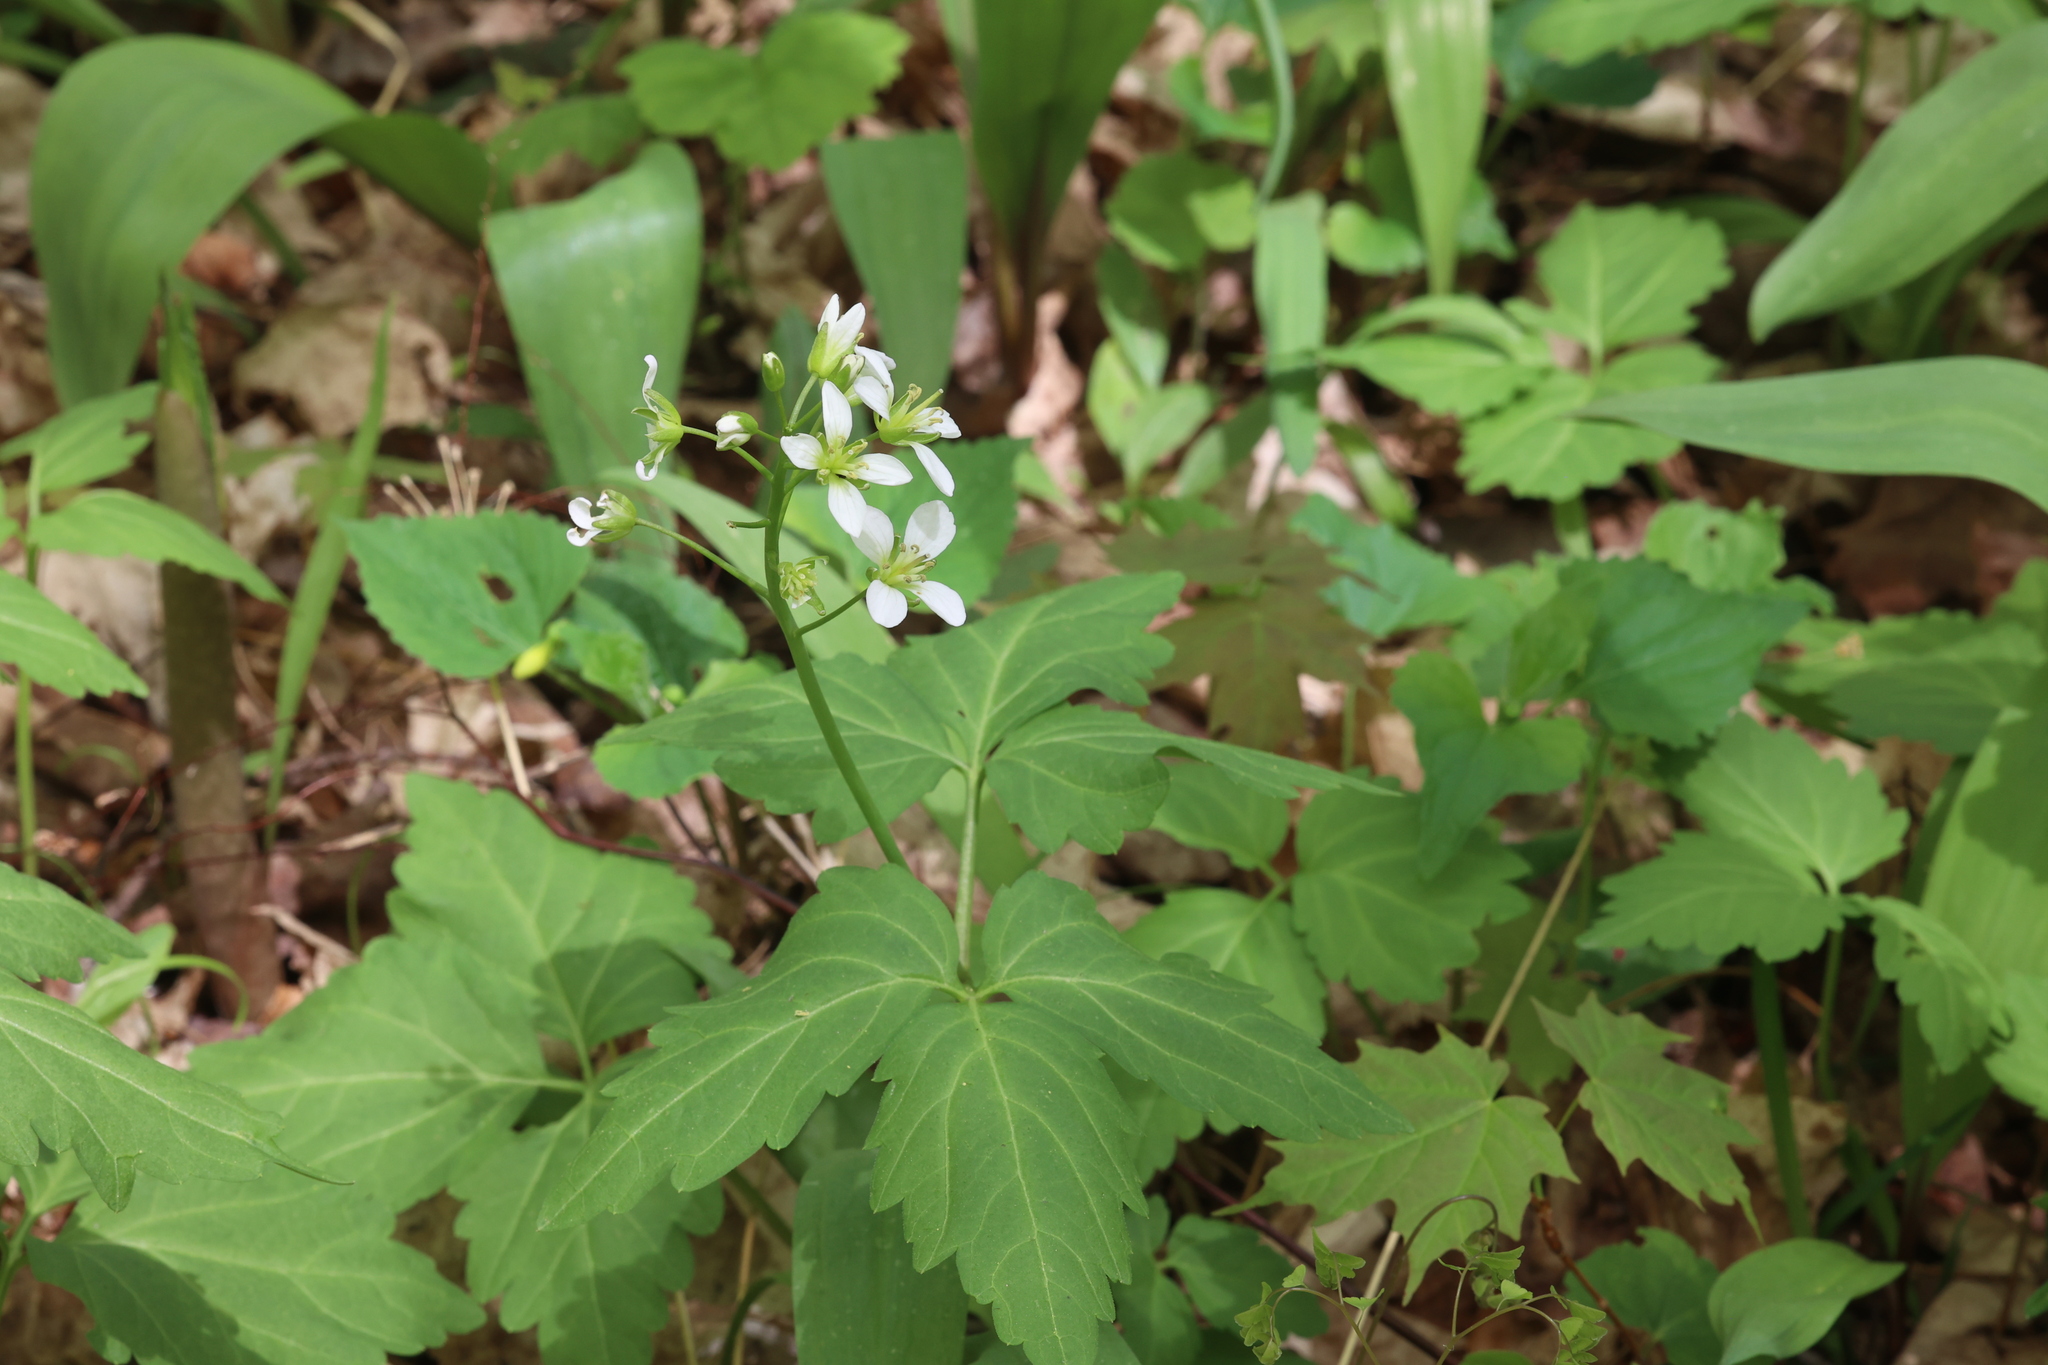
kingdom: Plantae
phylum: Tracheophyta
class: Magnoliopsida
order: Brassicales
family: Brassicaceae
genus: Cardamine
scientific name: Cardamine diphylla
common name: Broad-leaved toothwort
